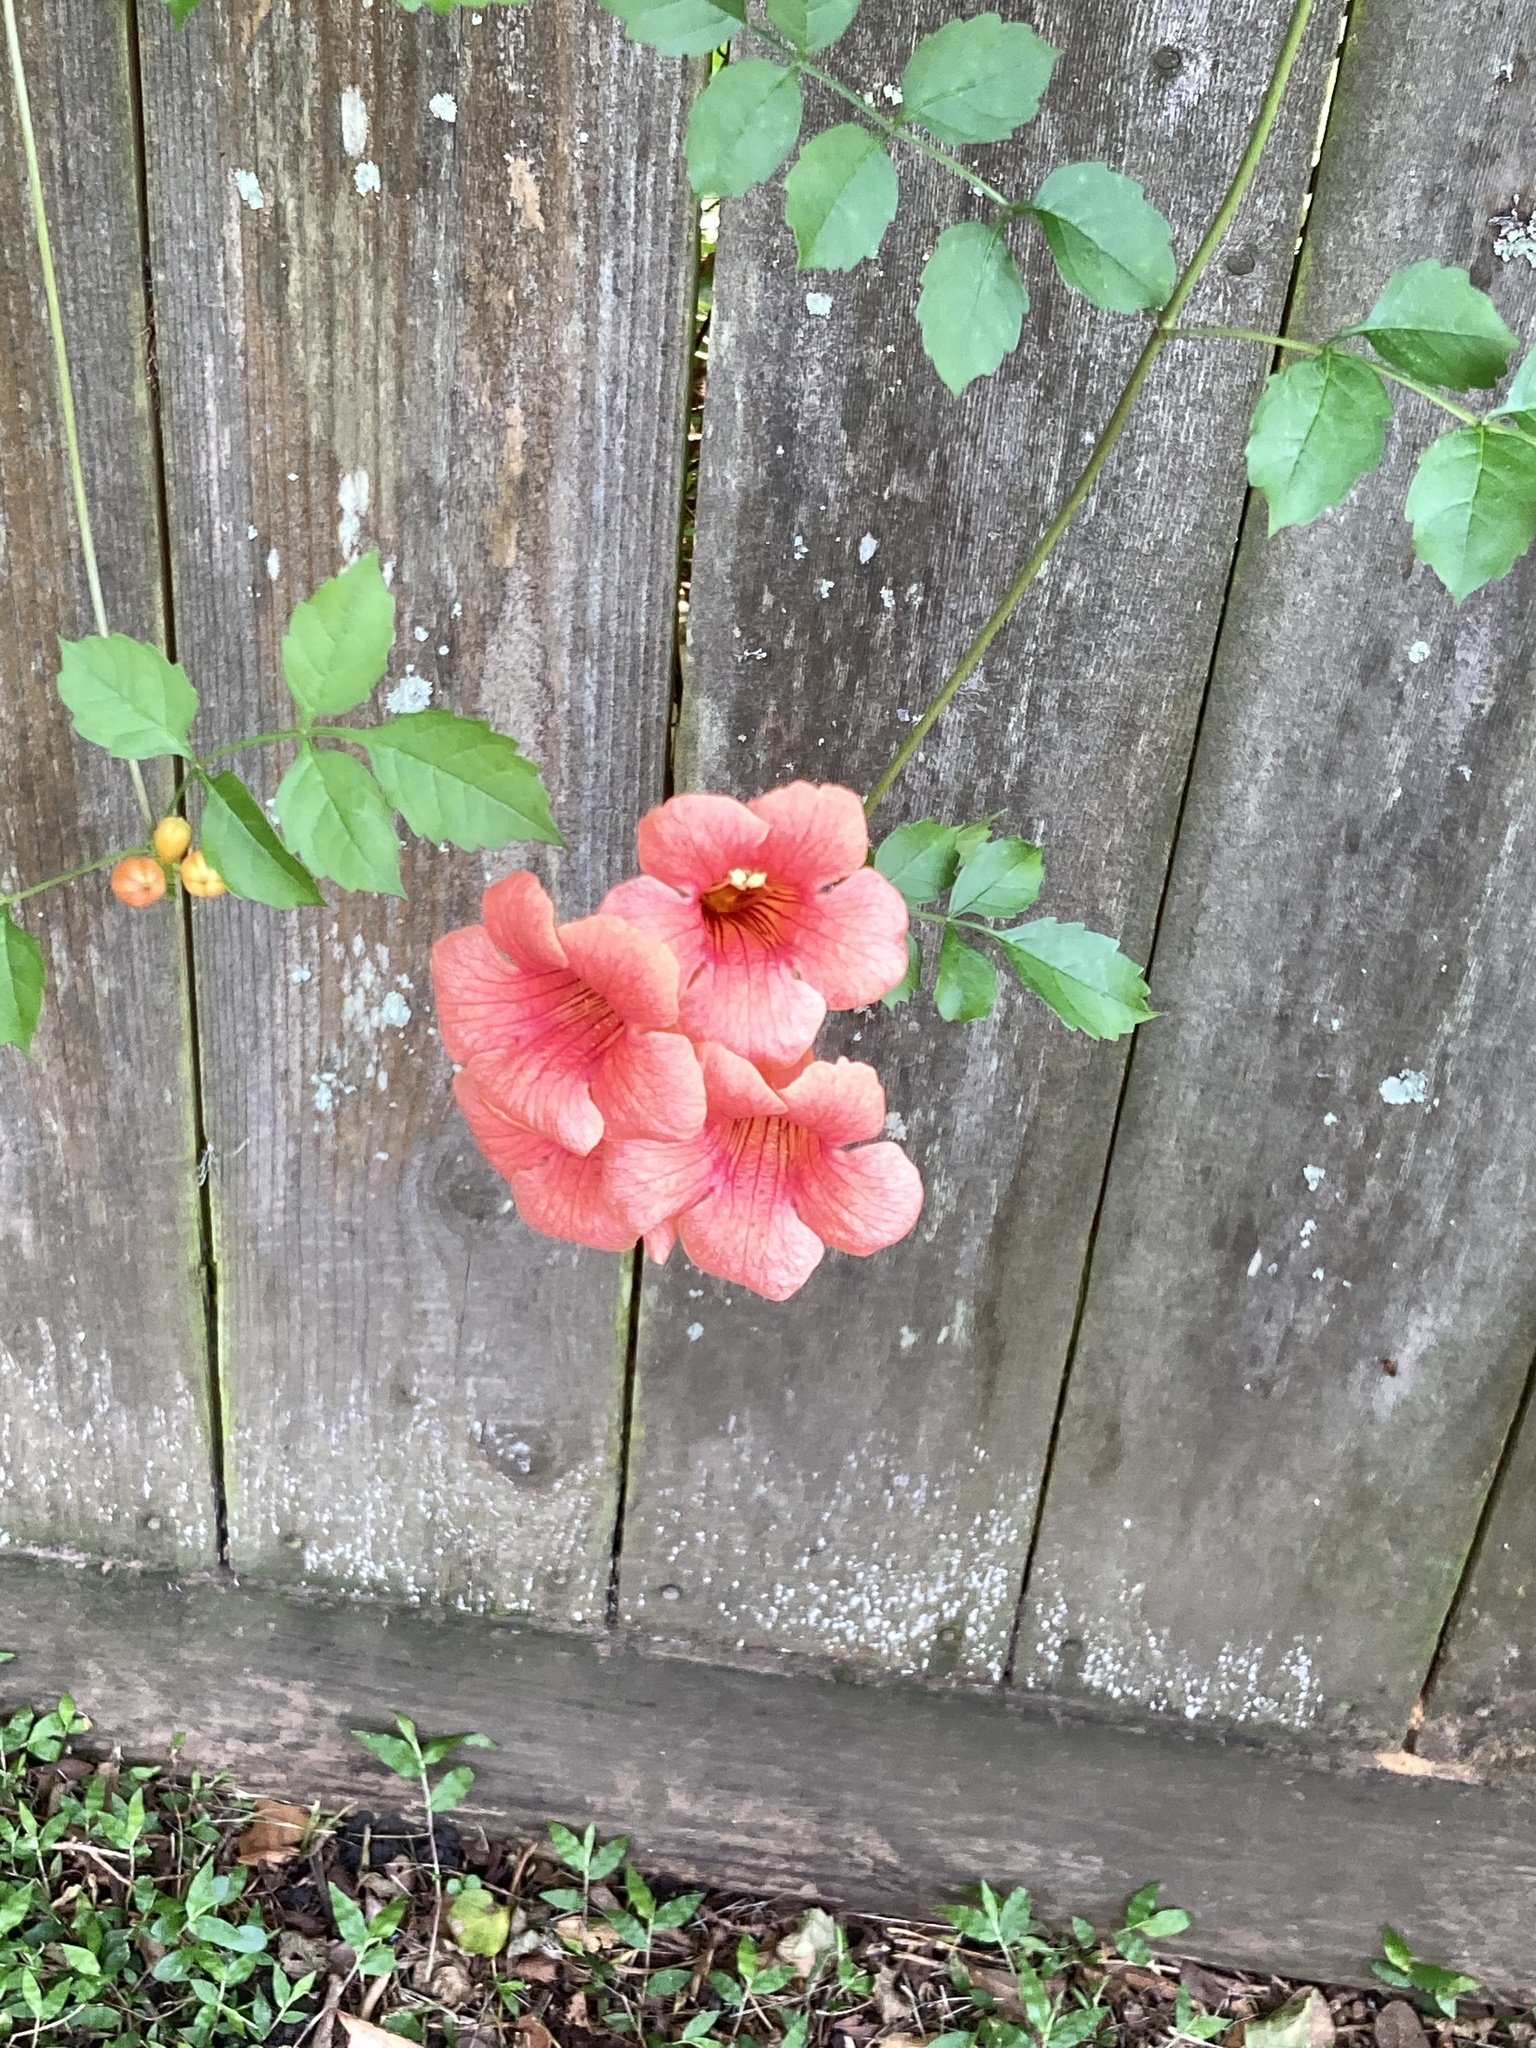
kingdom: Plantae
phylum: Tracheophyta
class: Magnoliopsida
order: Lamiales
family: Bignoniaceae
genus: Campsis
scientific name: Campsis radicans
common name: Trumpet-creeper
